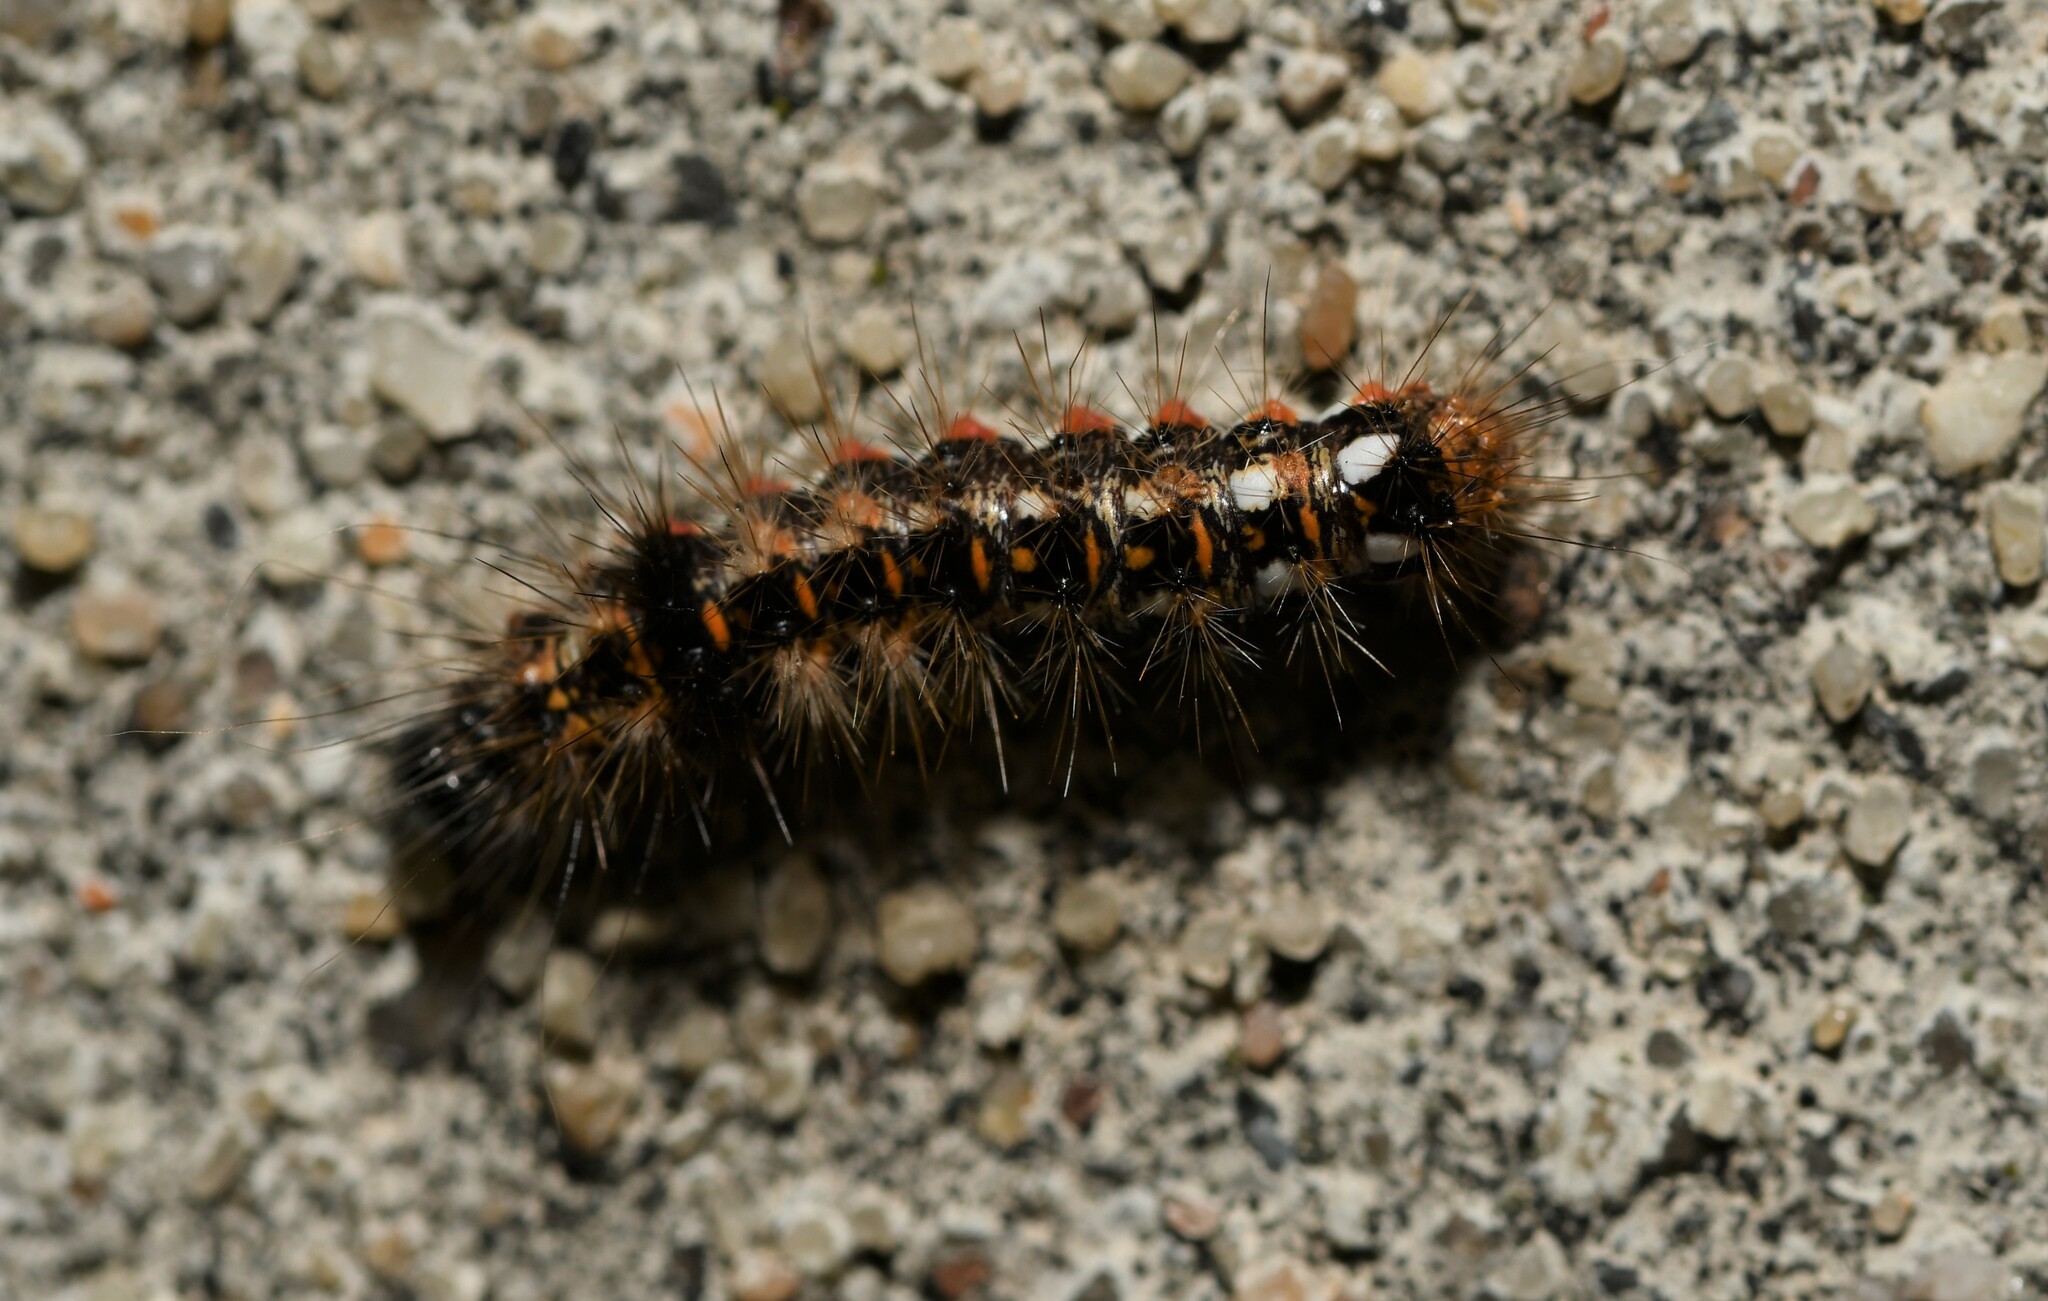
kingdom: Animalia
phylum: Arthropoda
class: Insecta
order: Lepidoptera
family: Noctuidae
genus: Acronicta
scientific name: Acronicta rumicis
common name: Knot grass
